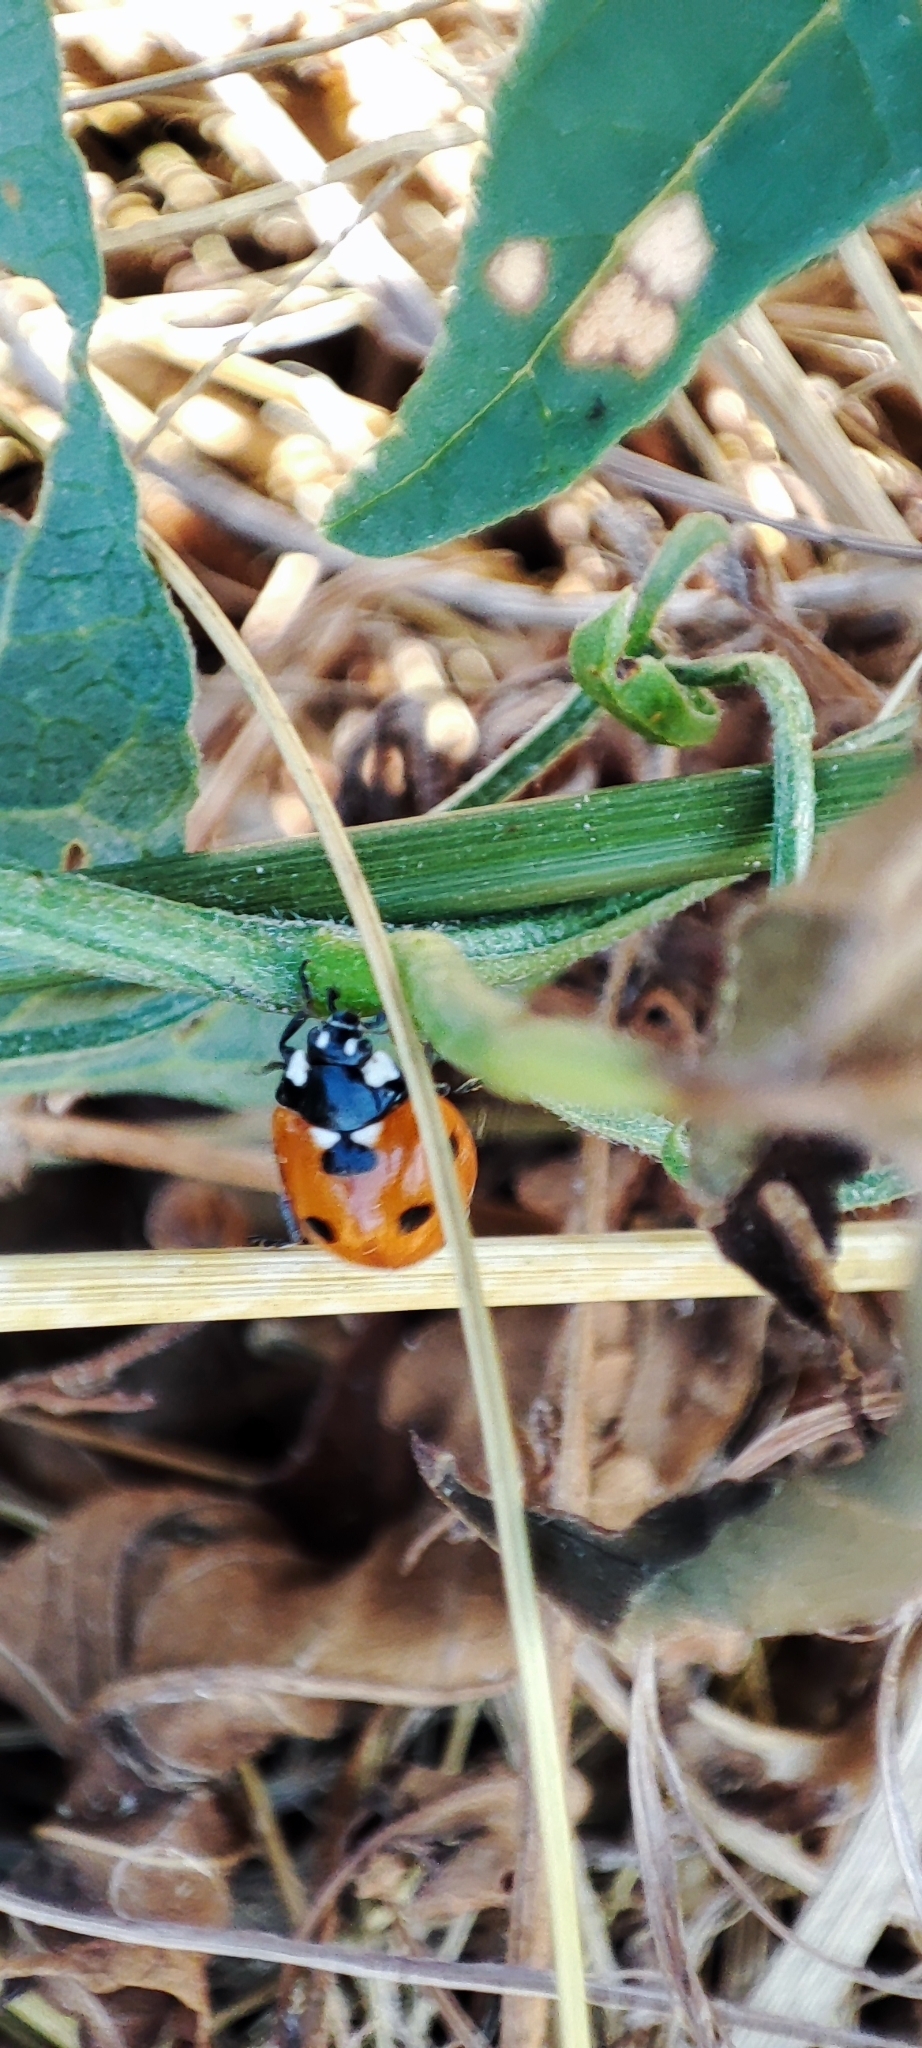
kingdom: Animalia
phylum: Arthropoda
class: Insecta
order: Coleoptera
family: Coccinellidae
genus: Coccinella
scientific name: Coccinella septempunctata
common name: Sevenspotted lady beetle
